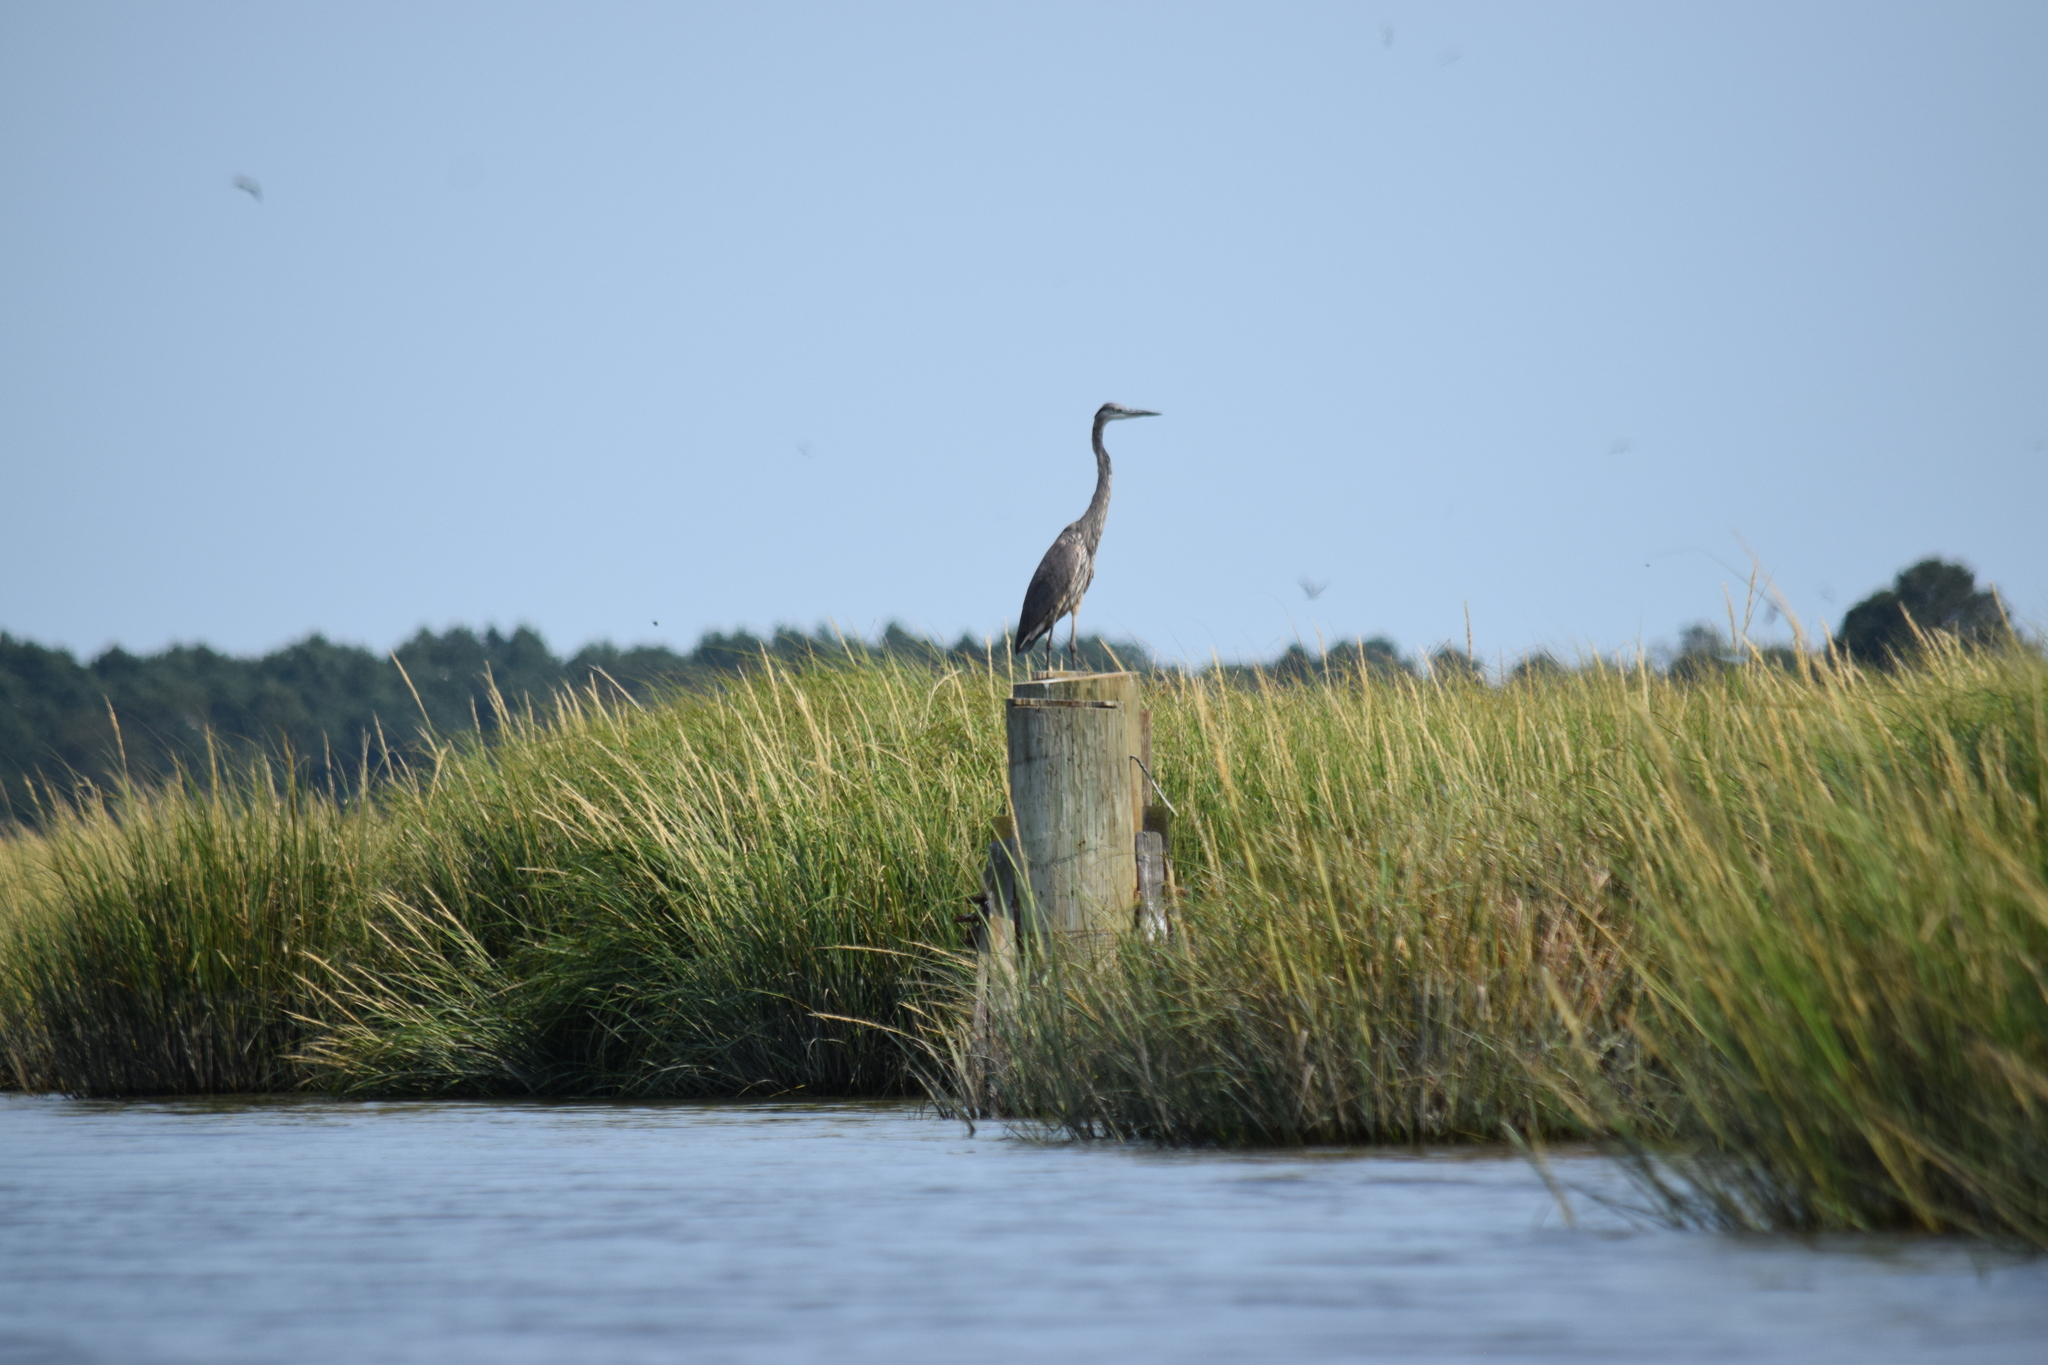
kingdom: Animalia
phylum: Chordata
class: Aves
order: Pelecaniformes
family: Ardeidae
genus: Ardea
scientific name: Ardea herodias
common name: Great blue heron
